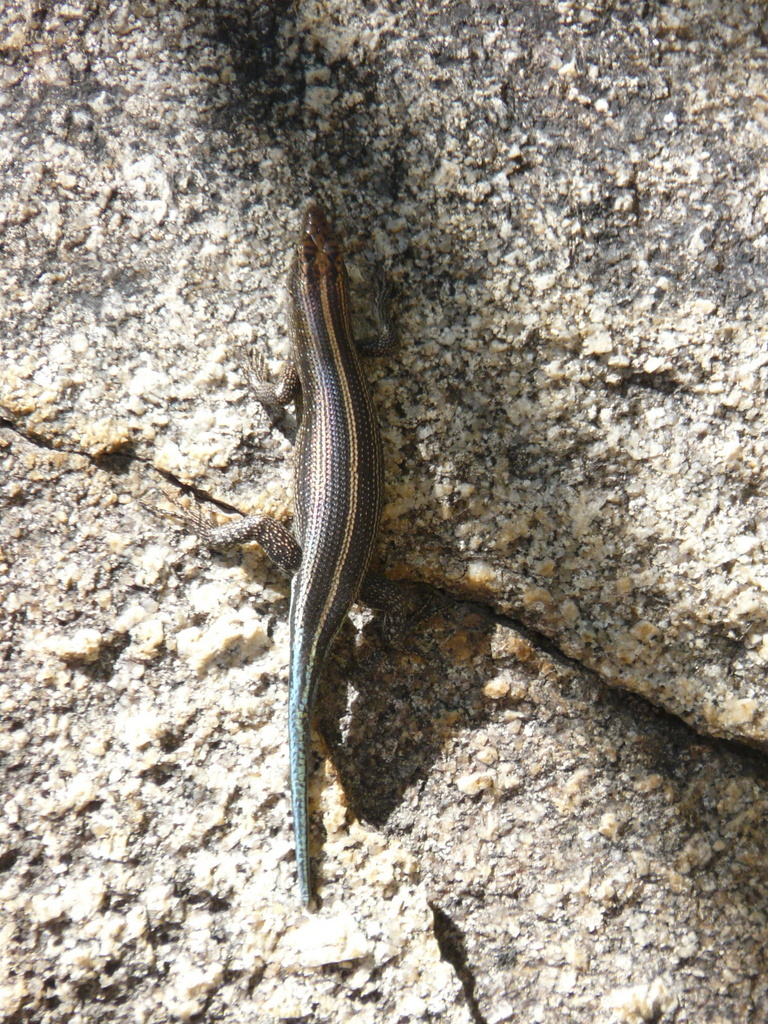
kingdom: Animalia
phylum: Chordata
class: Squamata
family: Scincidae
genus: Trachylepis
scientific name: Trachylepis margaritifera
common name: Rainbow skink
